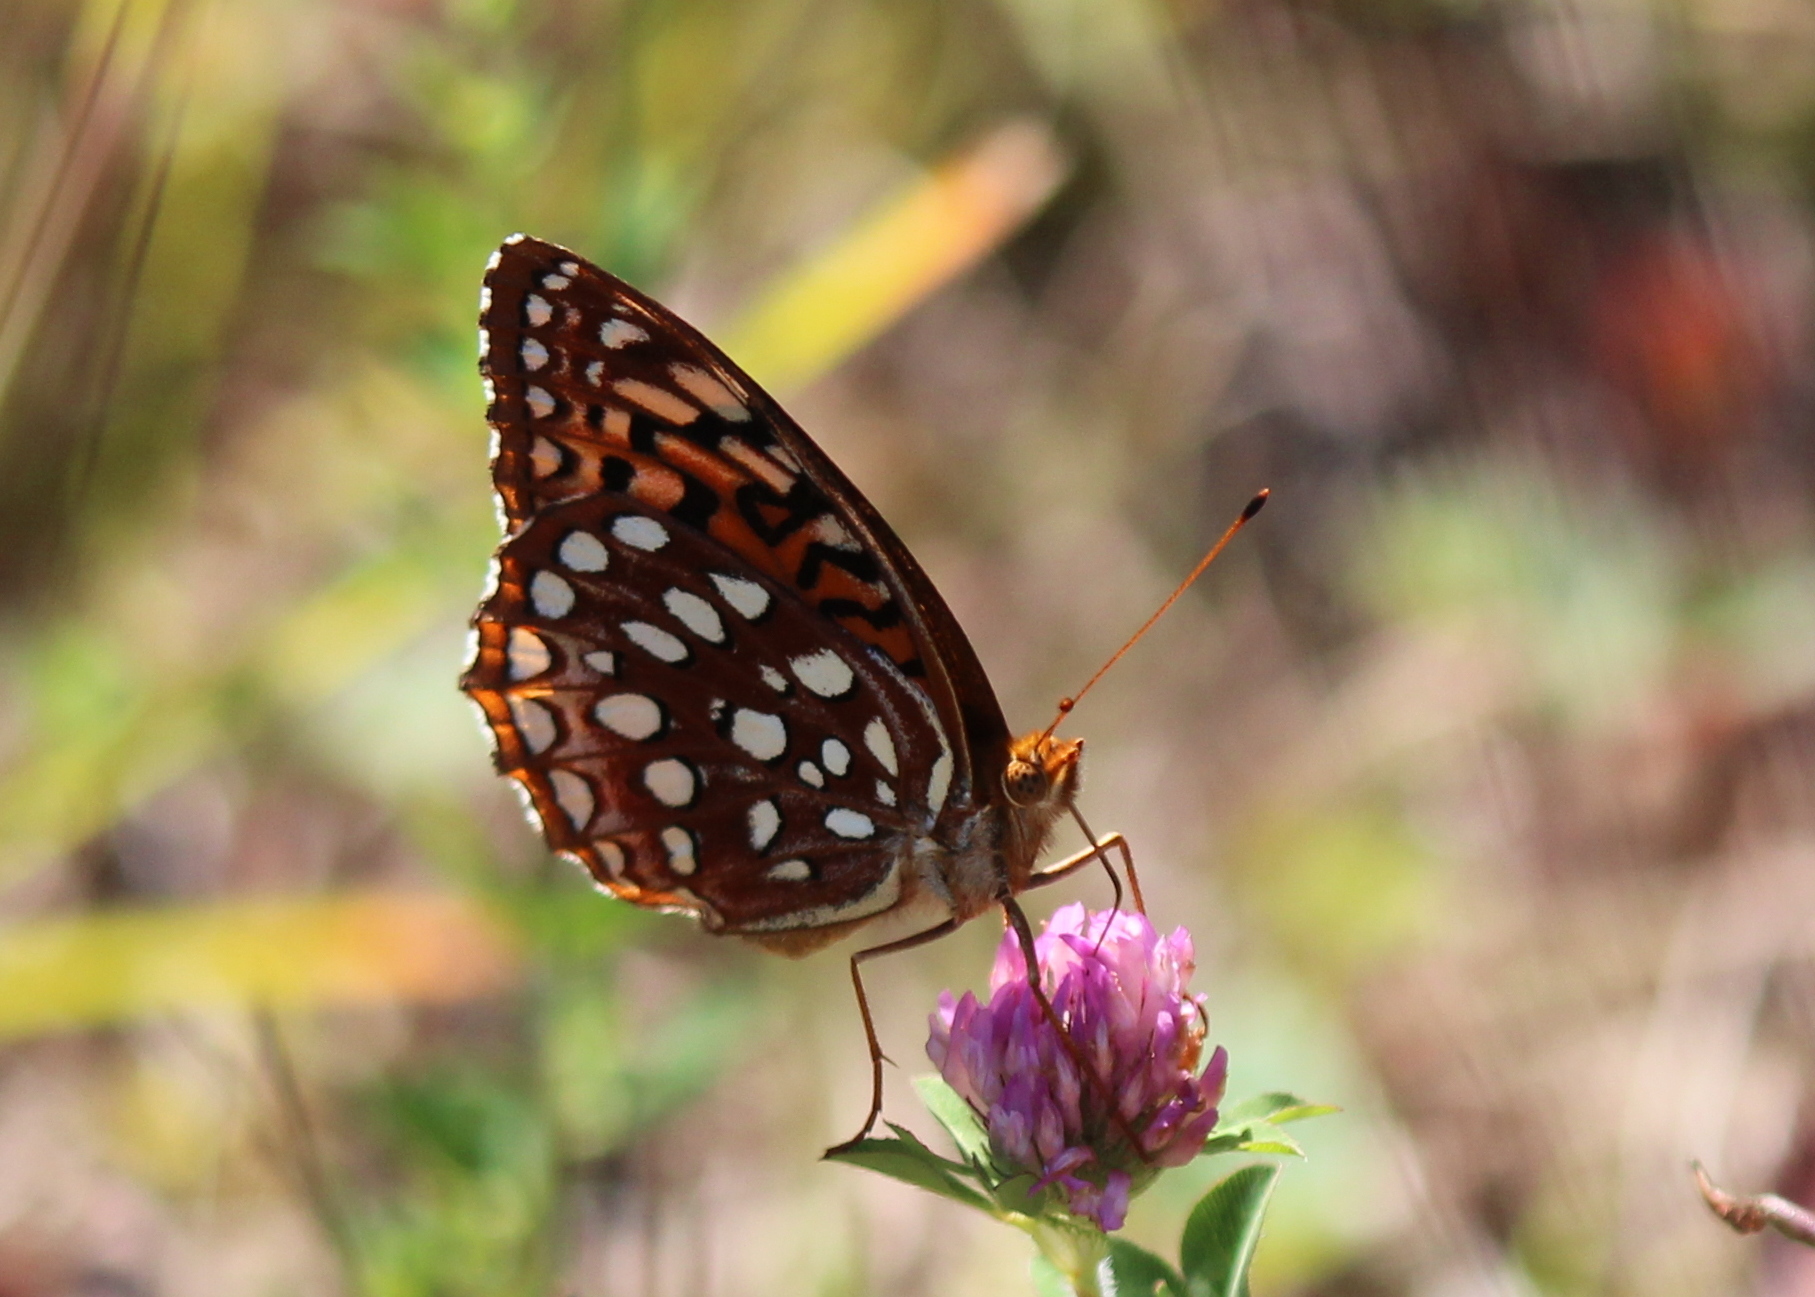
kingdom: Animalia
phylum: Arthropoda
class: Insecta
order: Lepidoptera
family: Nymphalidae
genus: Speyeria
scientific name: Speyeria aphrodite
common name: Aphrodite friitllary
